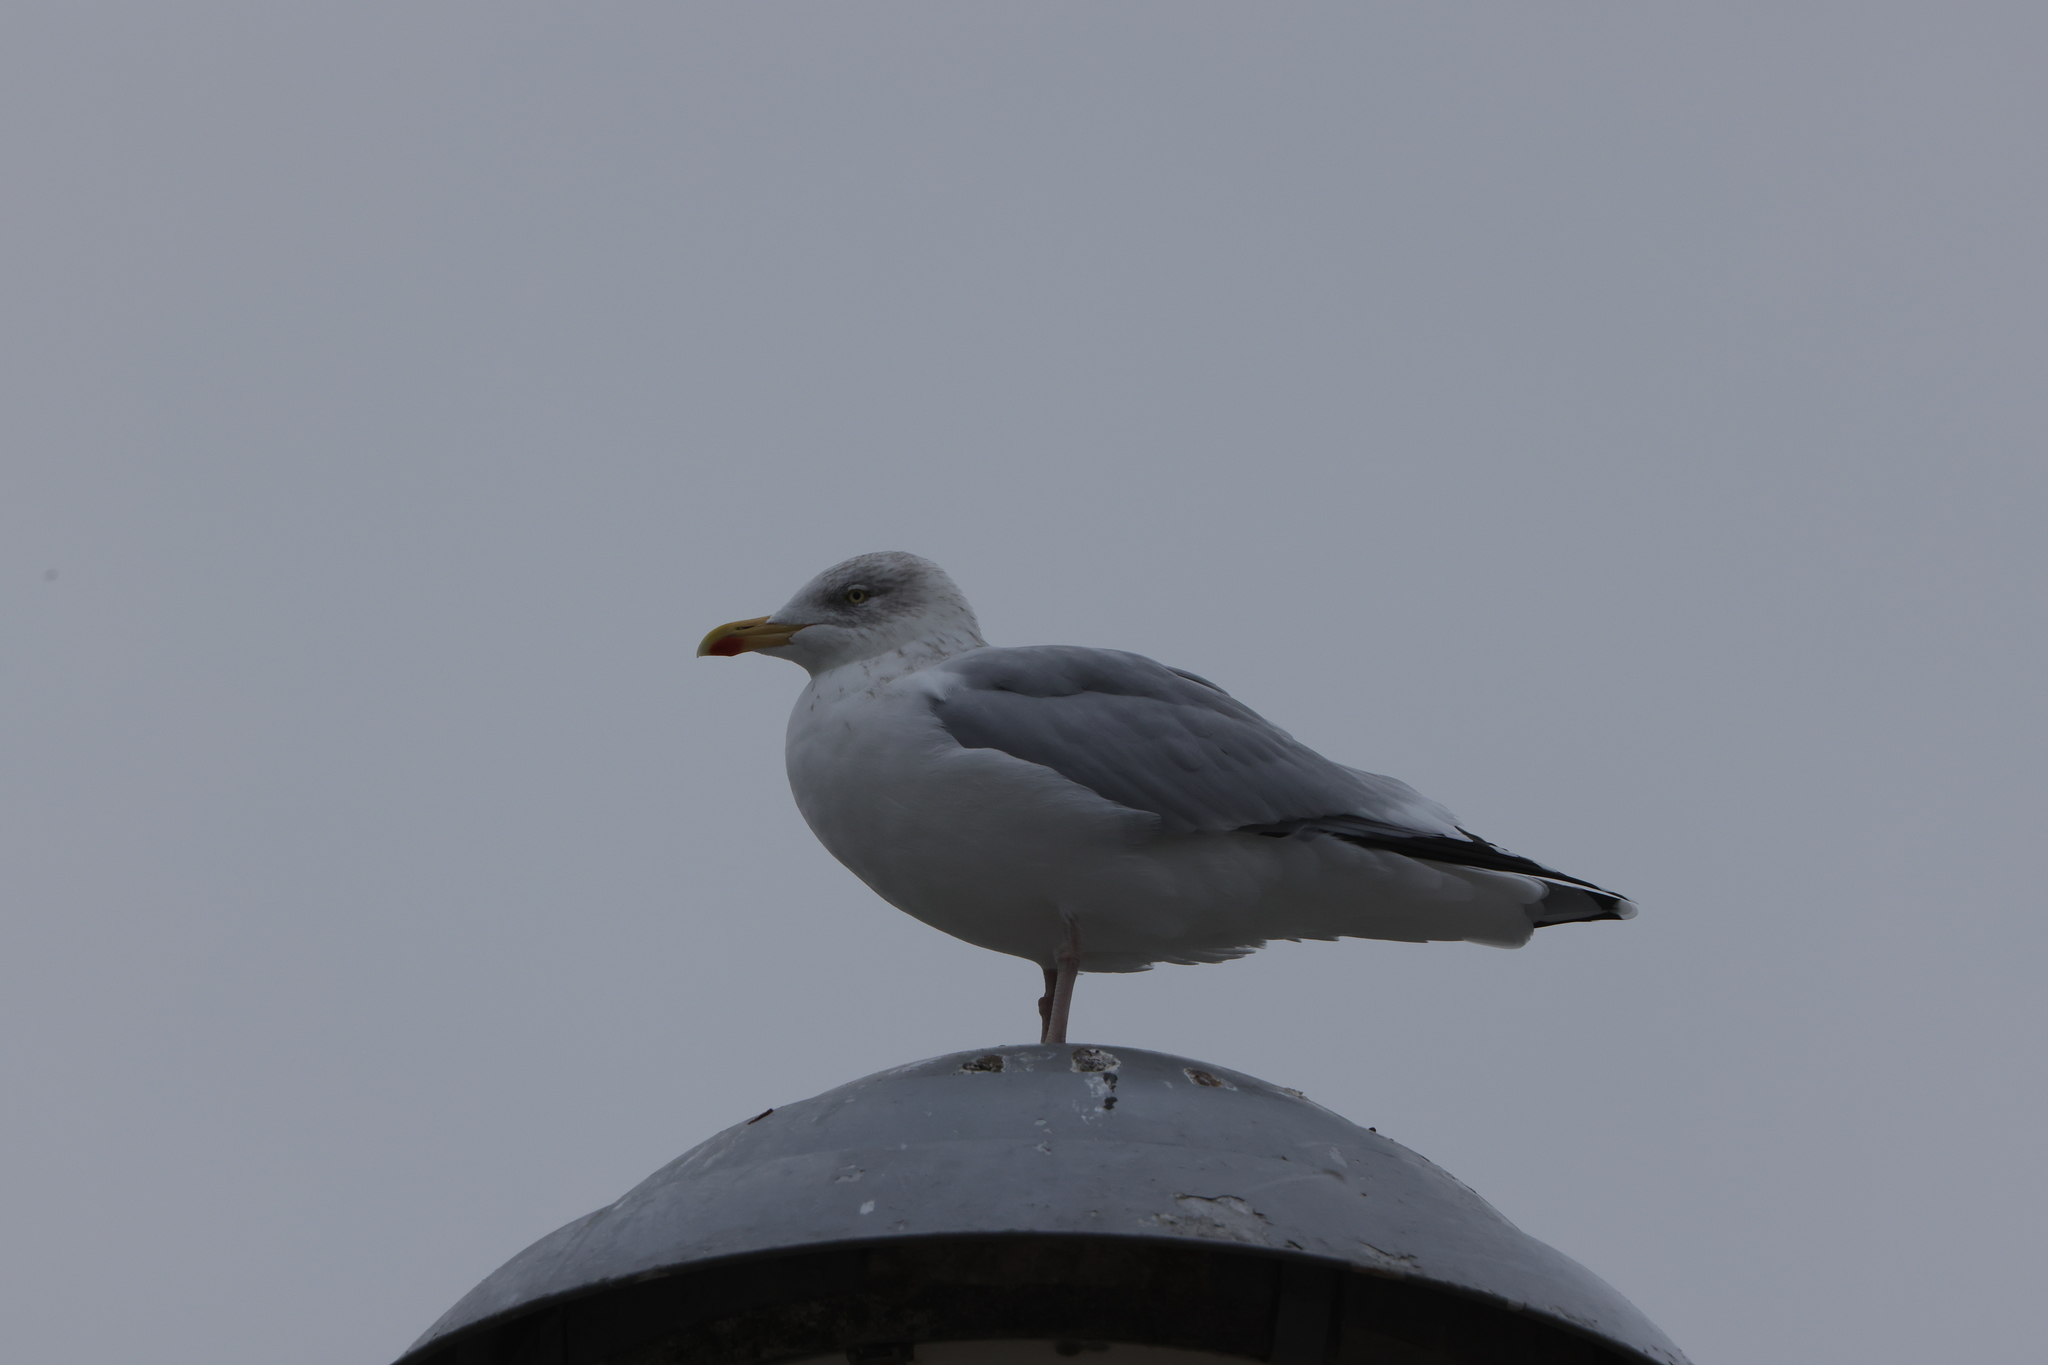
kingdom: Animalia
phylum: Chordata
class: Aves
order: Charadriiformes
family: Laridae
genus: Larus
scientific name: Larus argentatus
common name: Herring gull
